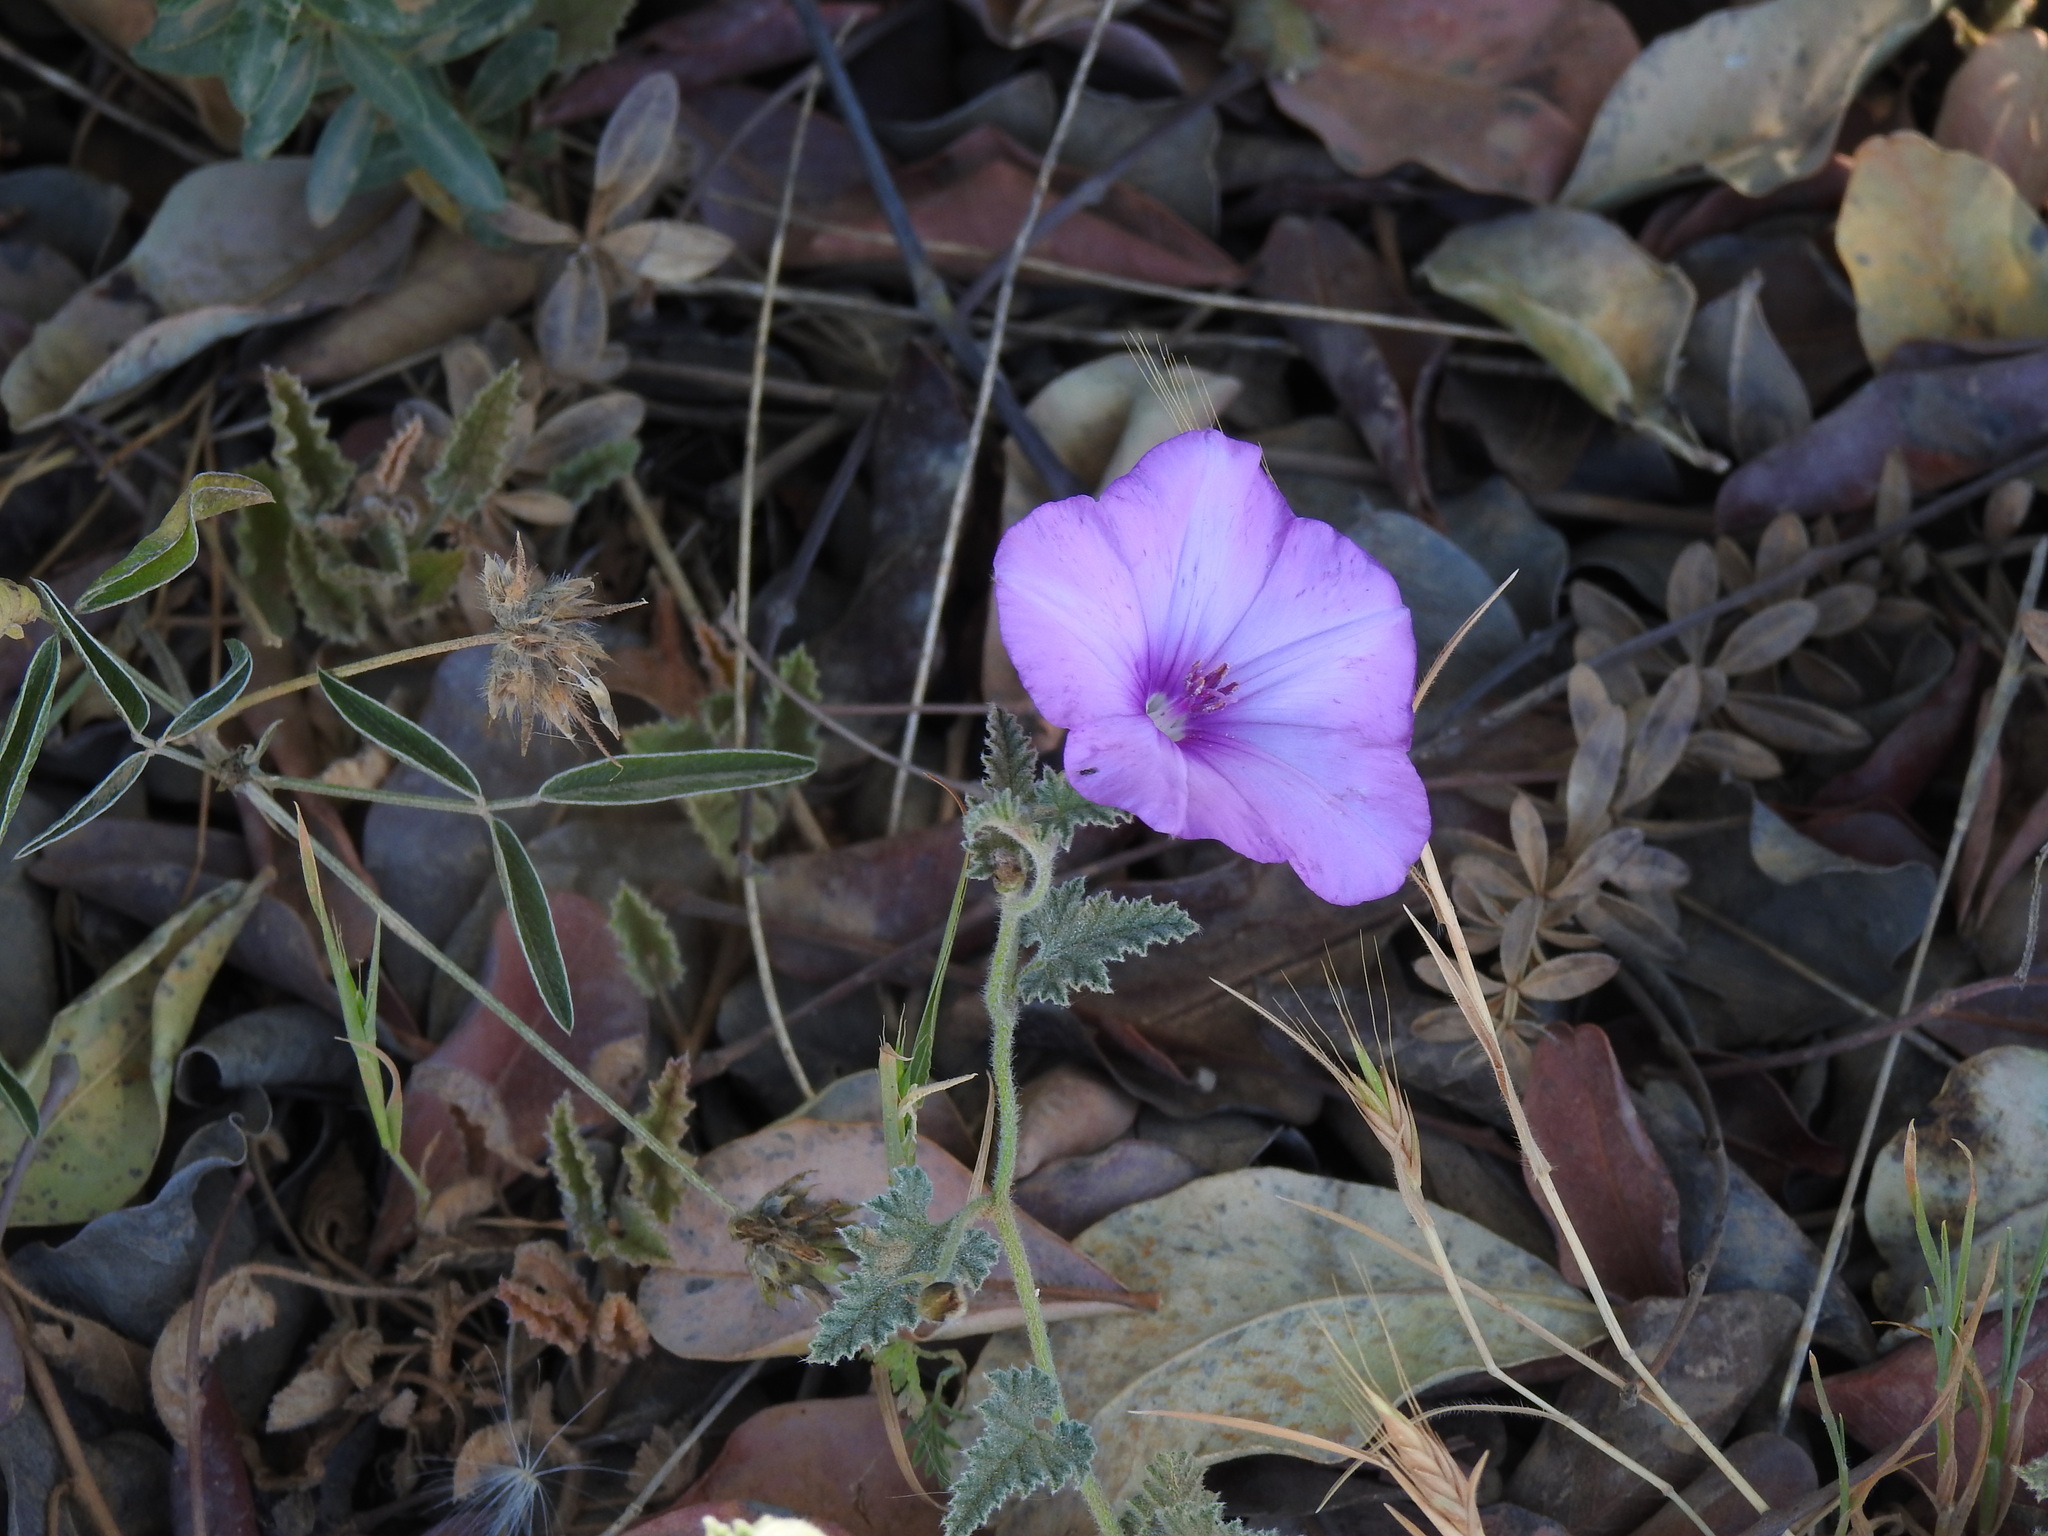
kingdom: Plantae
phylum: Tracheophyta
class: Magnoliopsida
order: Solanales
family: Convolvulaceae
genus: Convolvulus
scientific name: Convolvulus althaeoides
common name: Mallow bindweed
